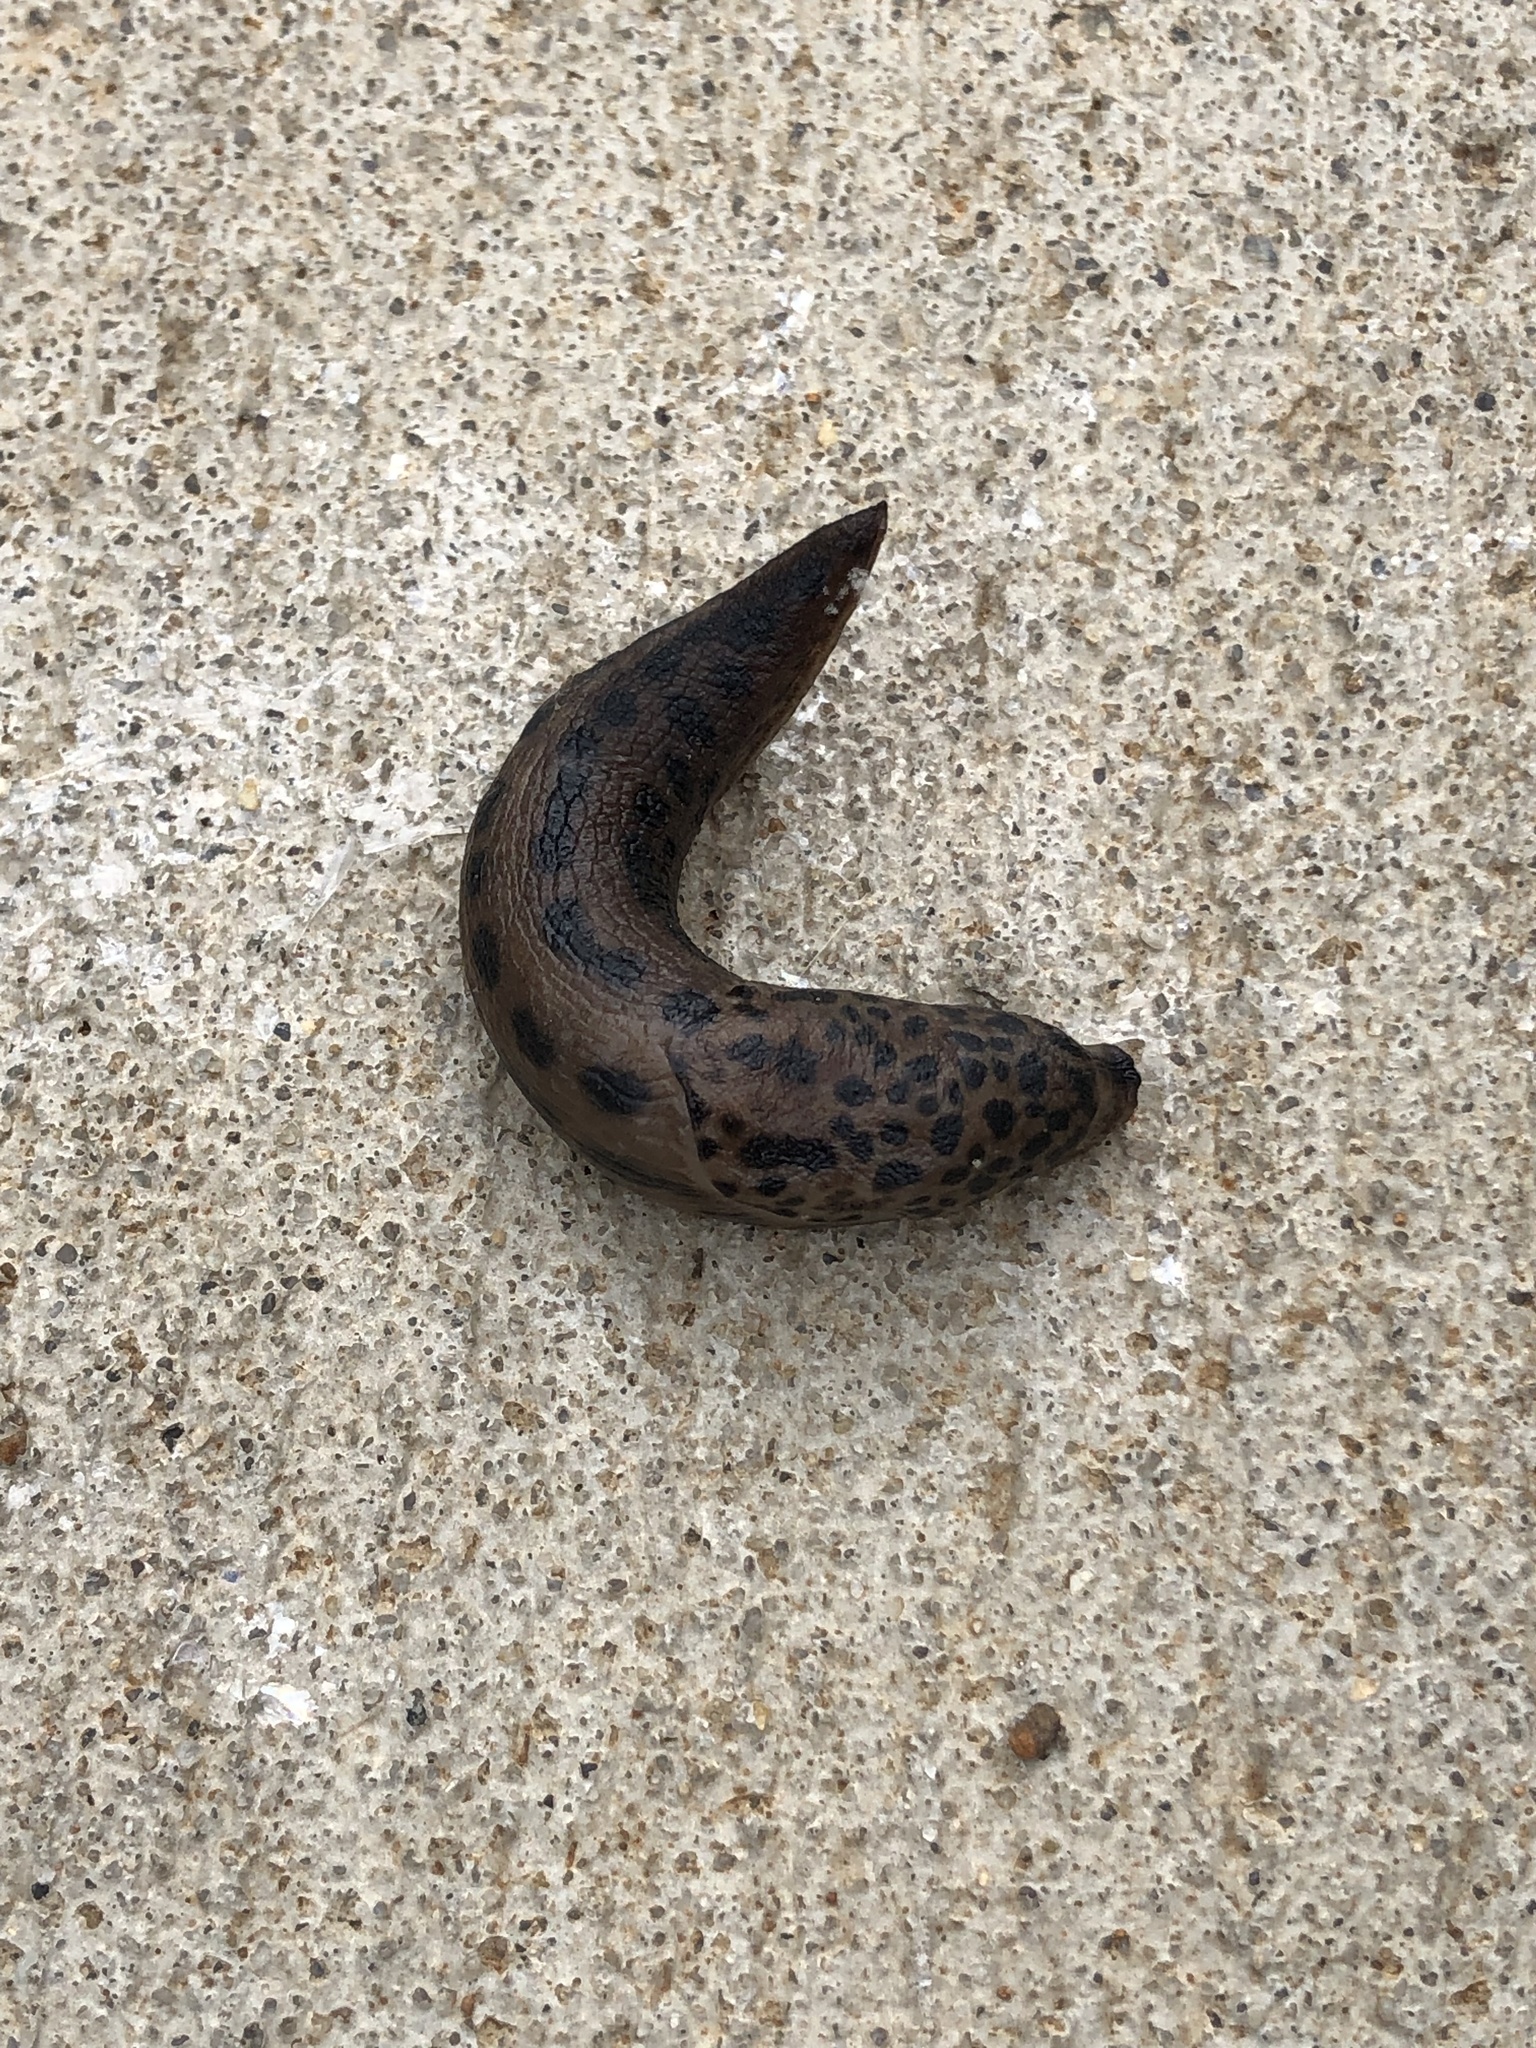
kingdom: Animalia
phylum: Mollusca
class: Gastropoda
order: Stylommatophora
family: Limacidae
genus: Limax
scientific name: Limax maximus
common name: Great grey slug
